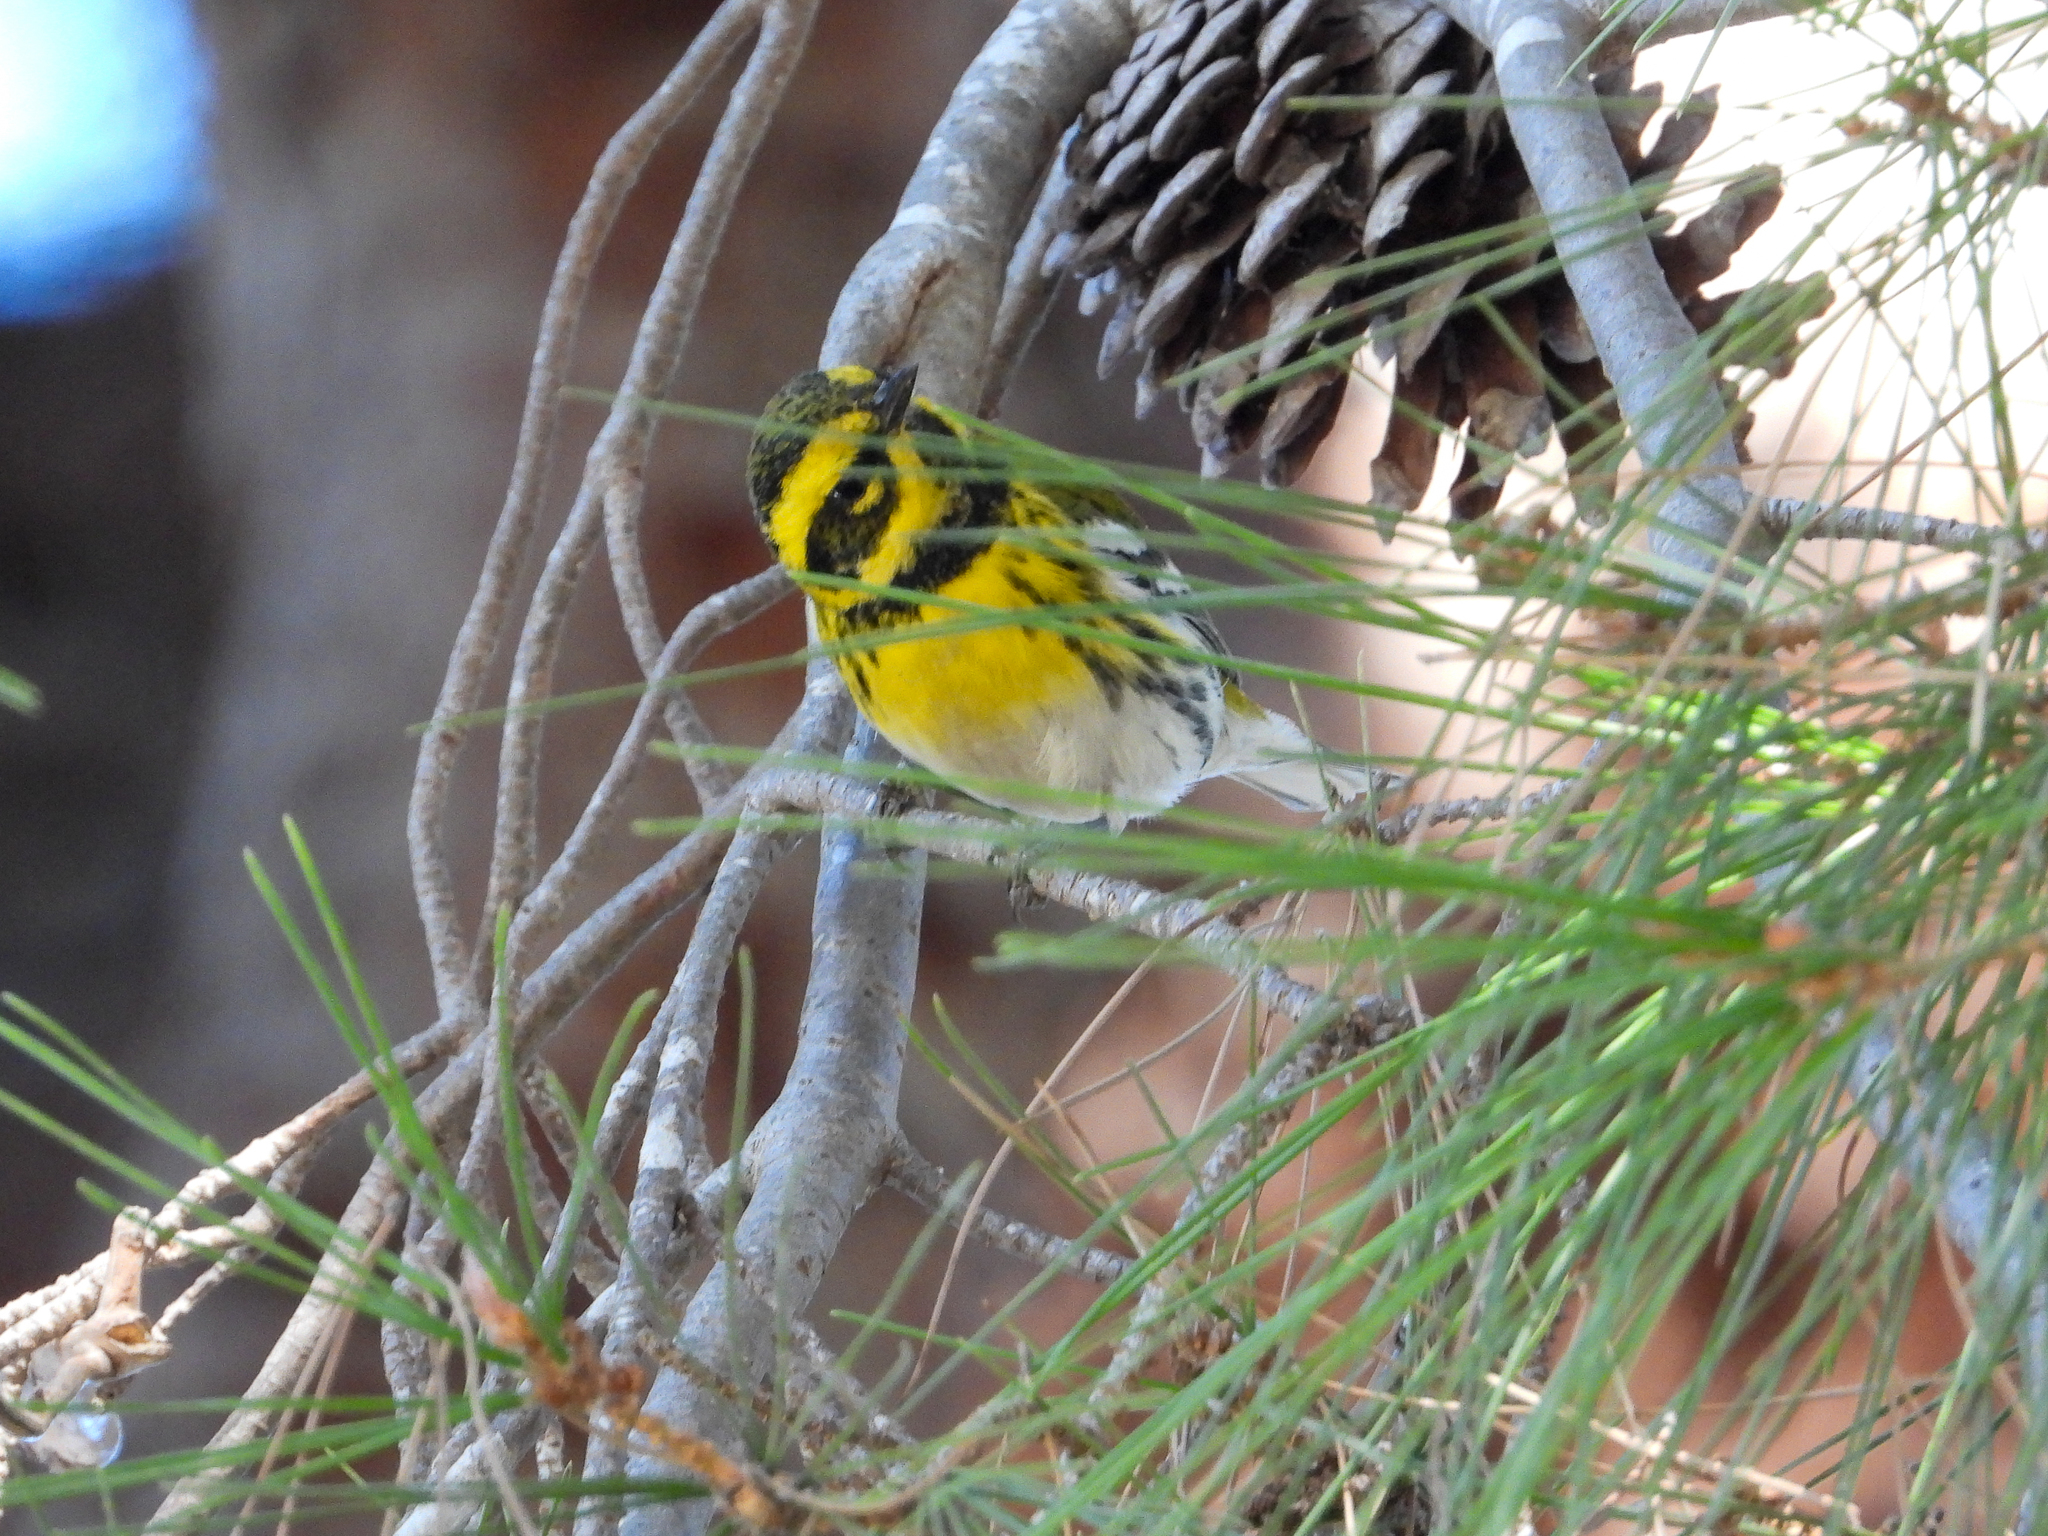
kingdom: Animalia
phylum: Chordata
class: Aves
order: Passeriformes
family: Parulidae
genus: Setophaga
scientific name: Setophaga townsendi
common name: Townsend's warbler
